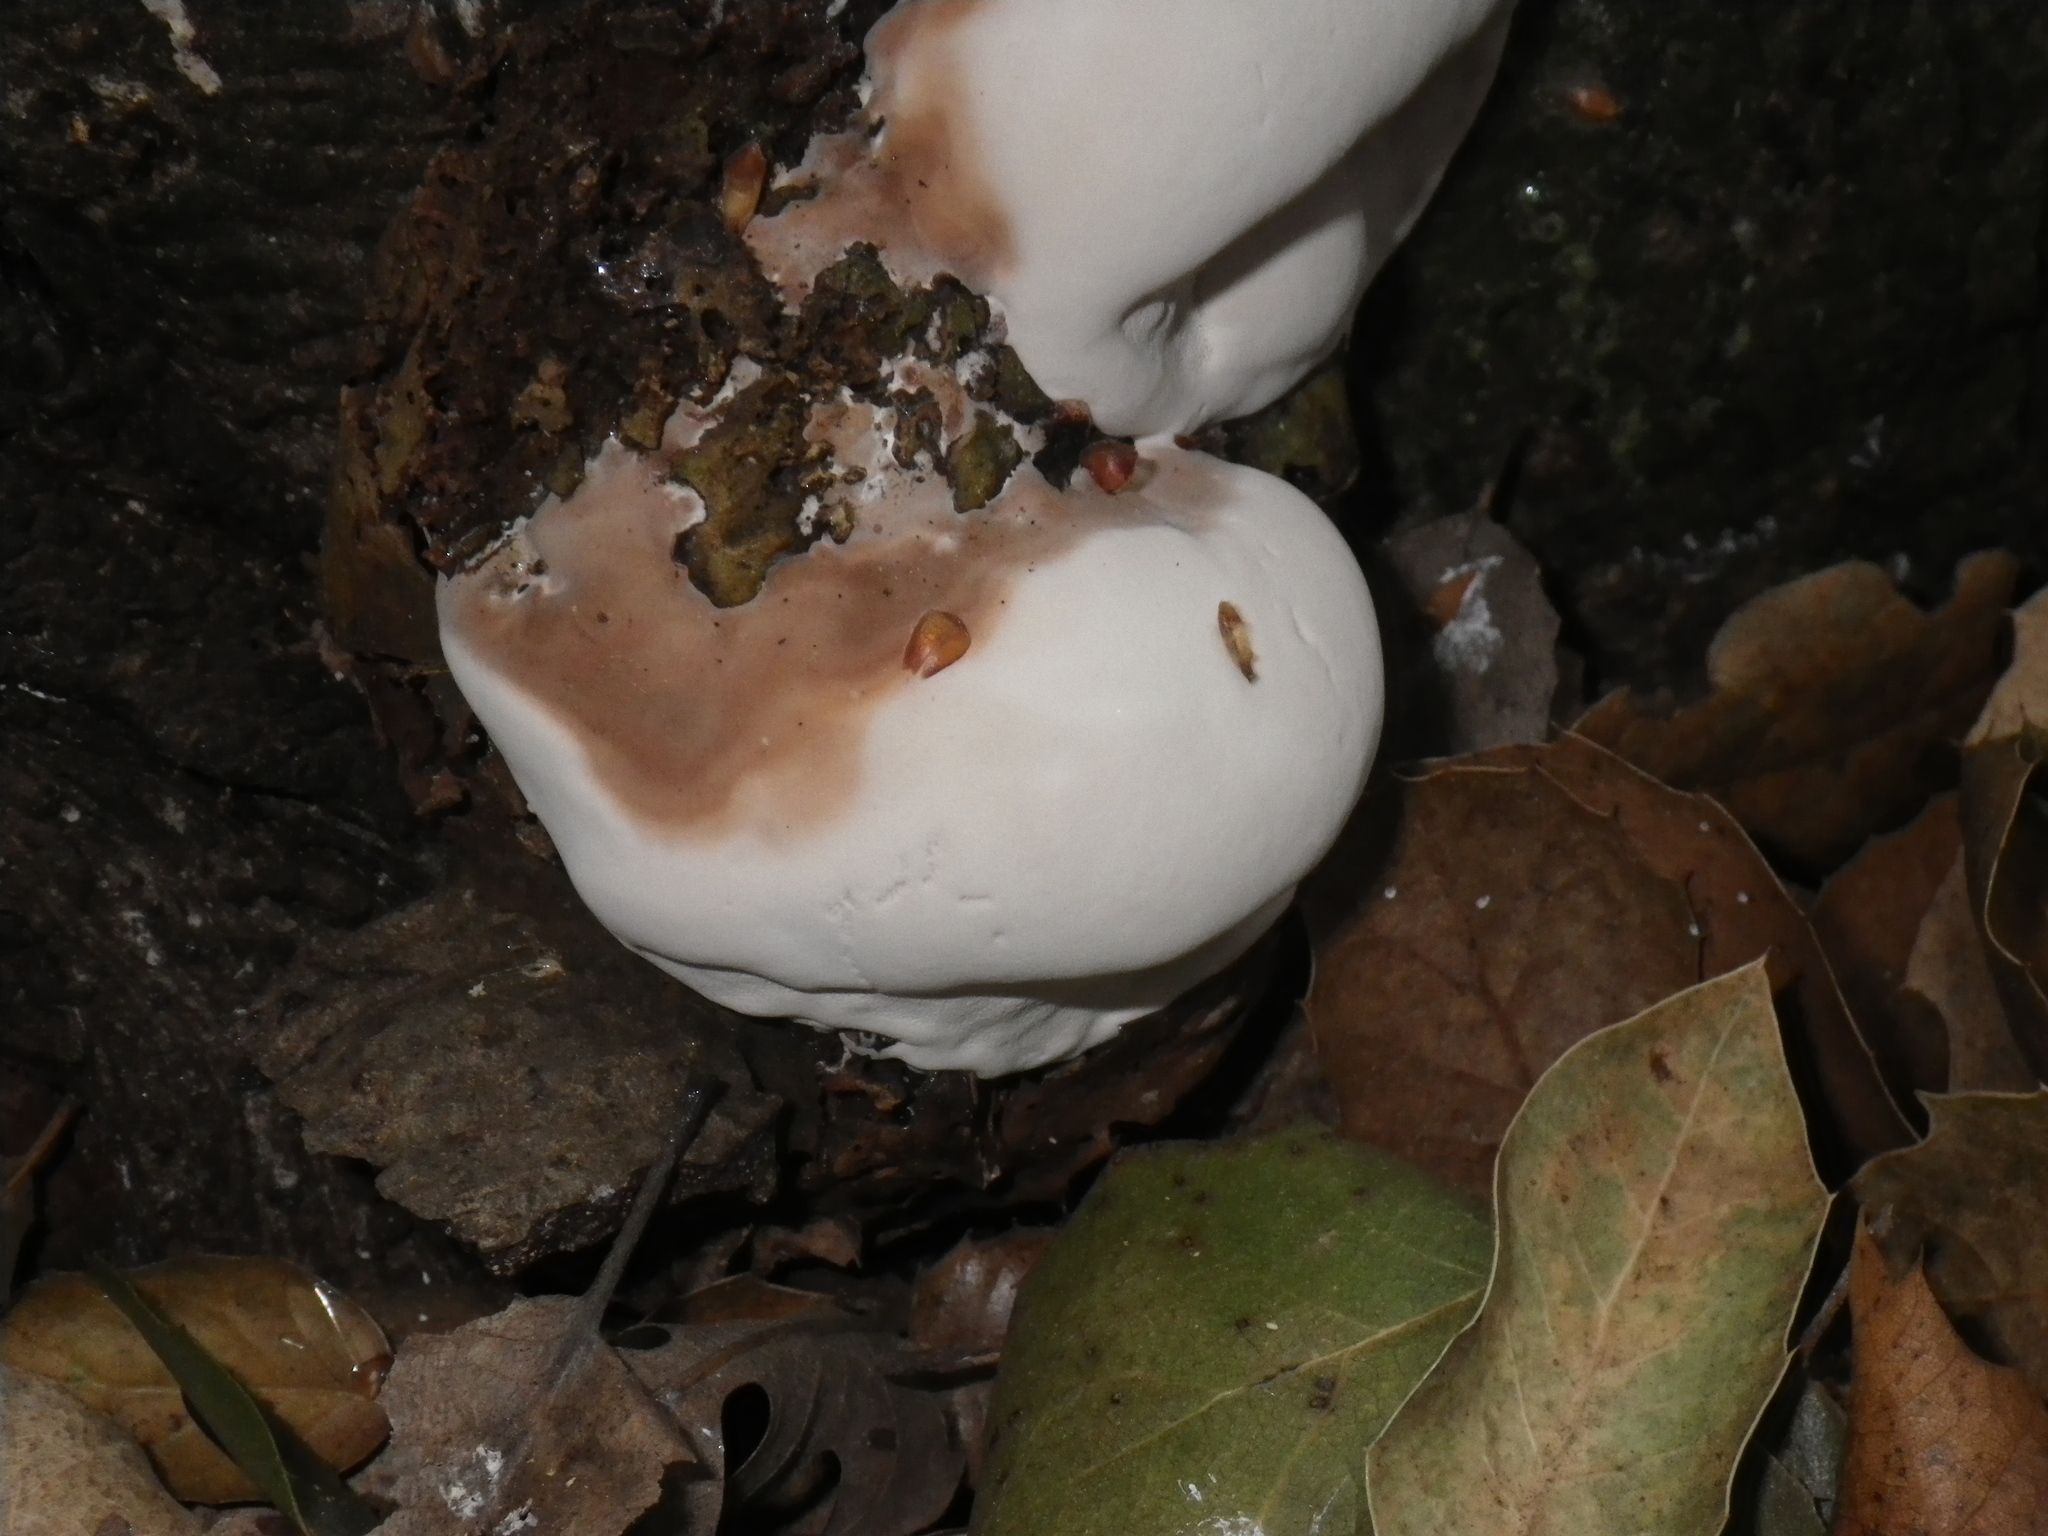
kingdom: Fungi
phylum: Basidiomycota
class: Agaricomycetes
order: Polyporales
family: Polyporaceae
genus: Ganoderma
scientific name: Ganoderma applanatum
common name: Artist's bracket
